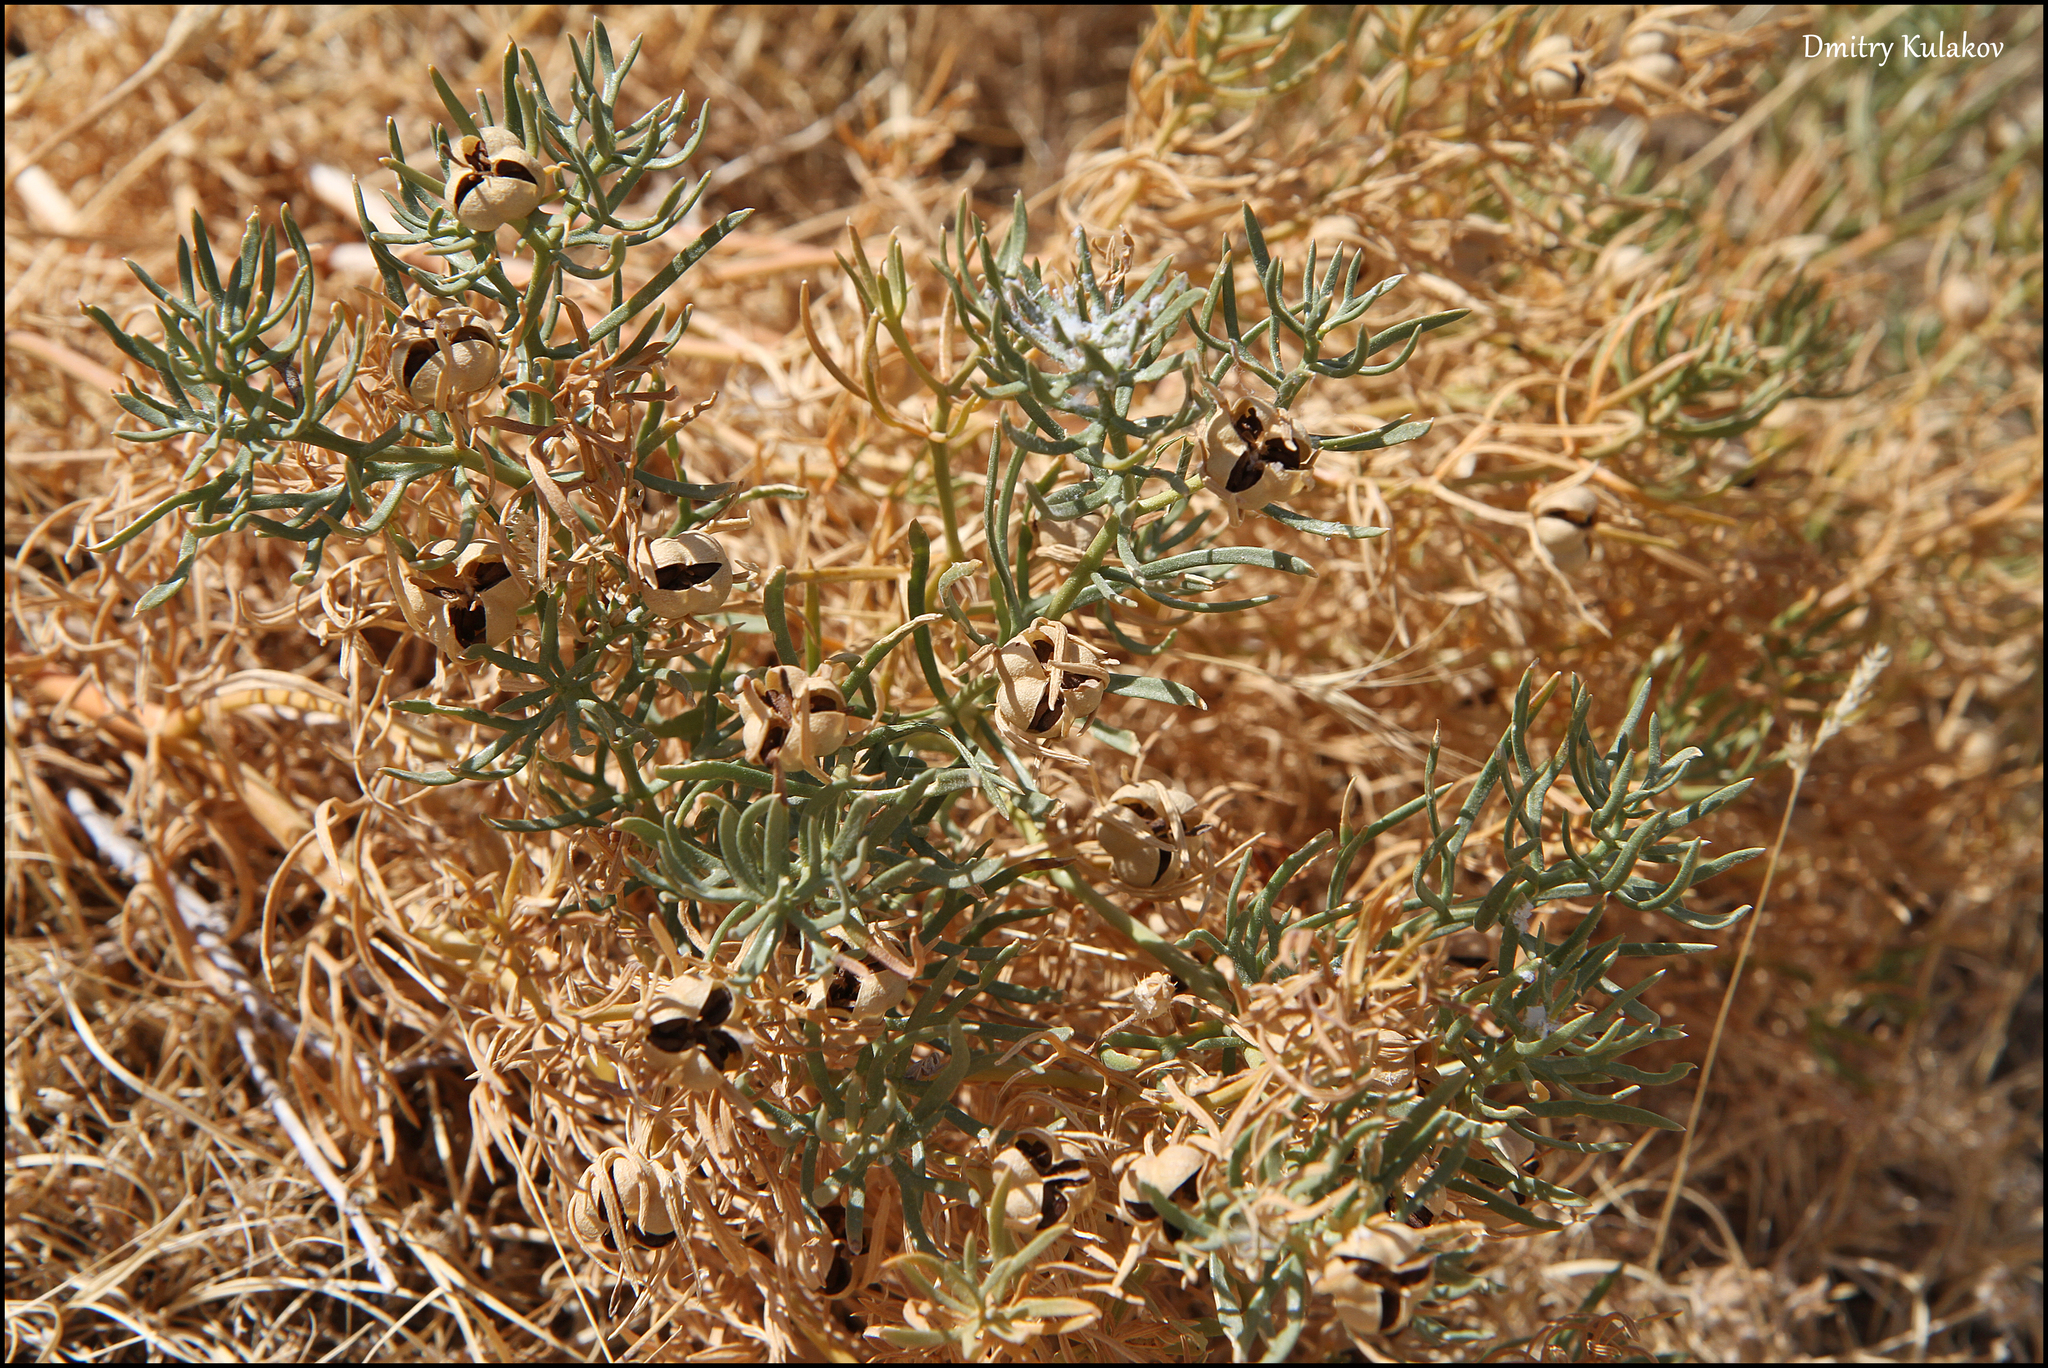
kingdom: Plantae
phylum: Tracheophyta
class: Magnoliopsida
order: Sapindales
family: Tetradiclidaceae
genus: Peganum
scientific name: Peganum harmala
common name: Harmal peganum
